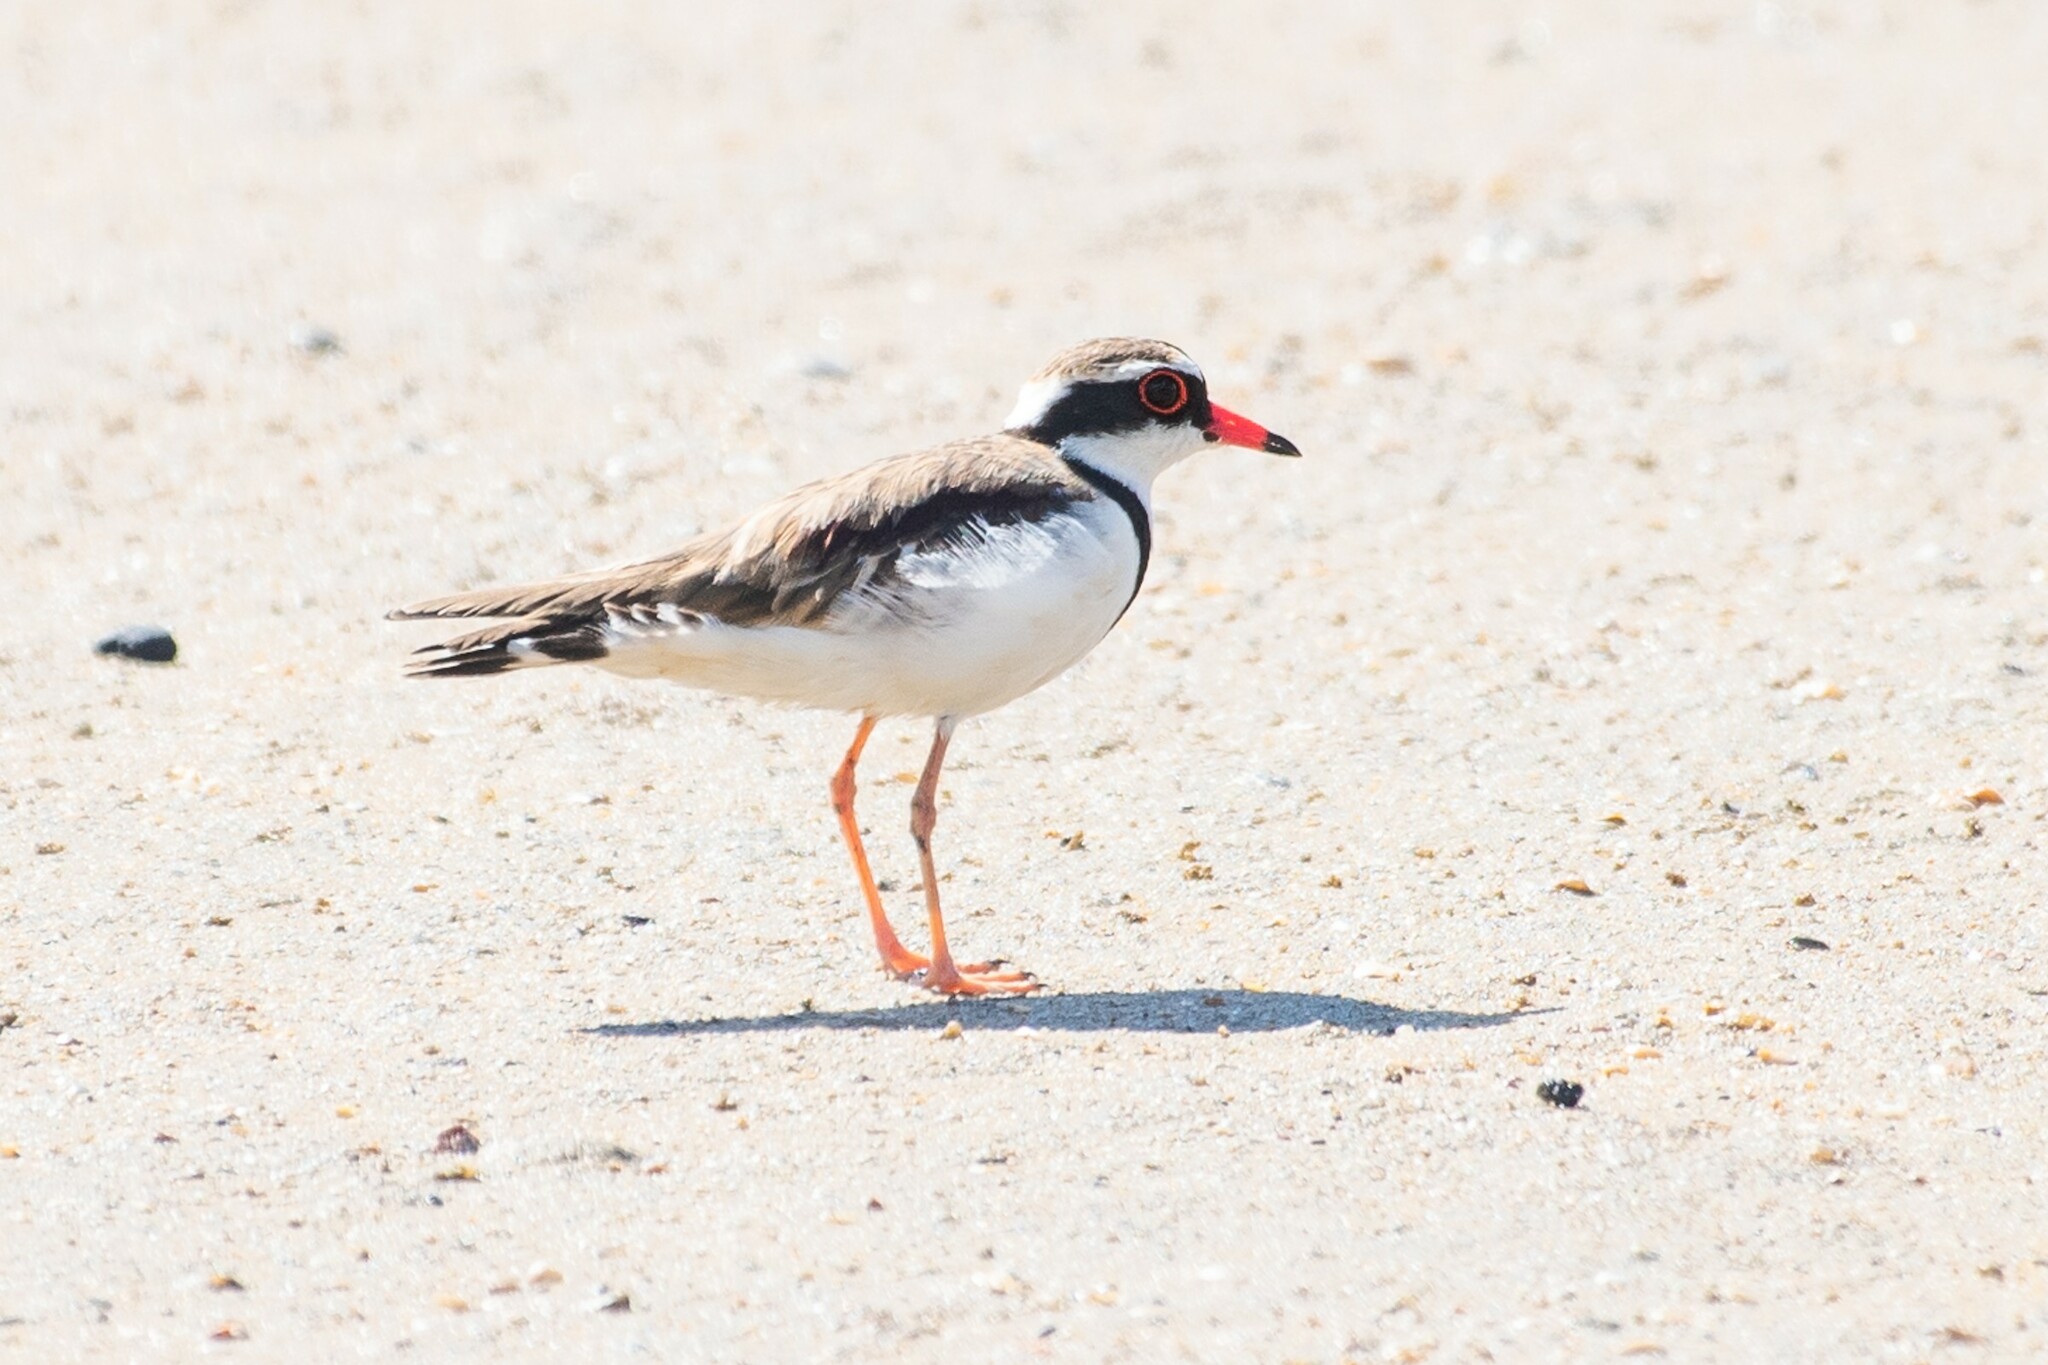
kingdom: Animalia
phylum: Chordata
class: Aves
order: Charadriiformes
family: Charadriidae
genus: Elseyornis
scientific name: Elseyornis melanops
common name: Black-fronted dotterel
